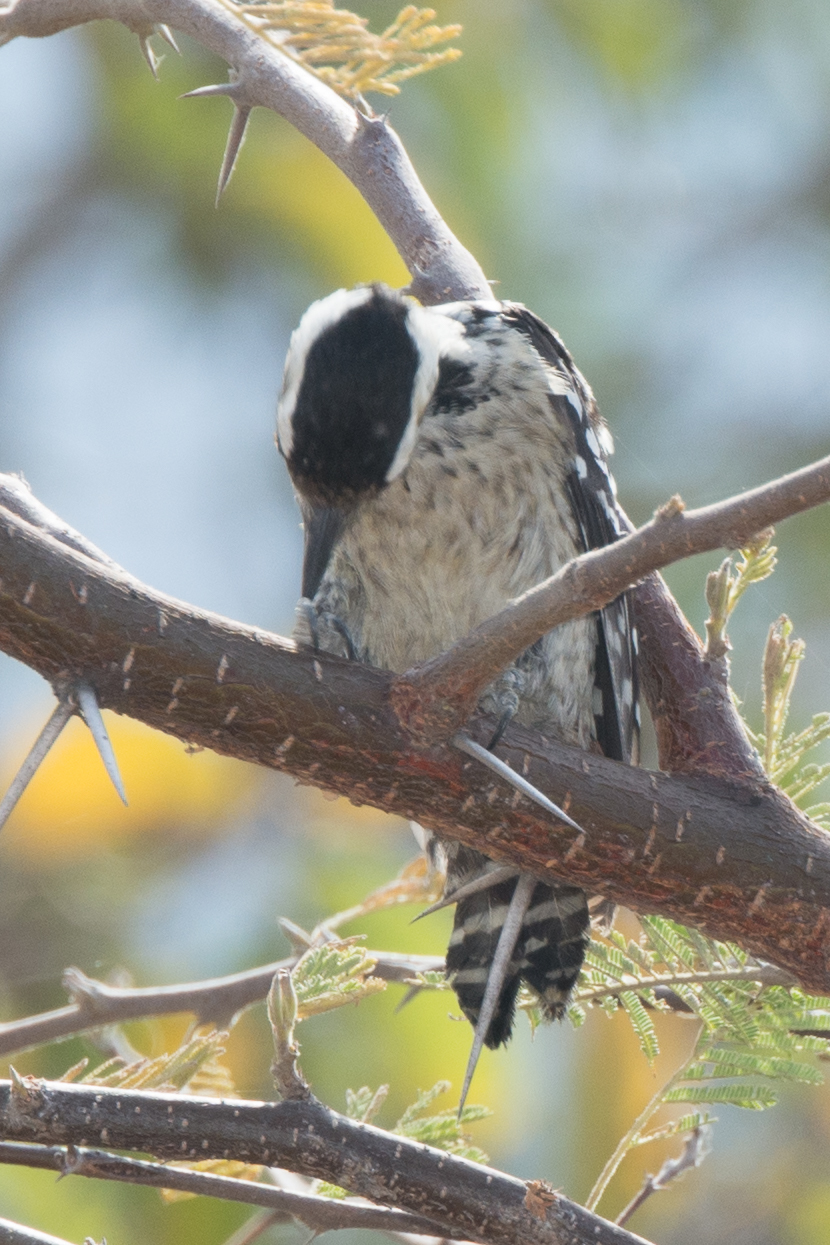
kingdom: Animalia
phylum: Chordata
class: Aves
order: Piciformes
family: Picidae
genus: Dendrocopos
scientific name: Dendrocopos analis
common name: Freckle-breasted woodpecker
